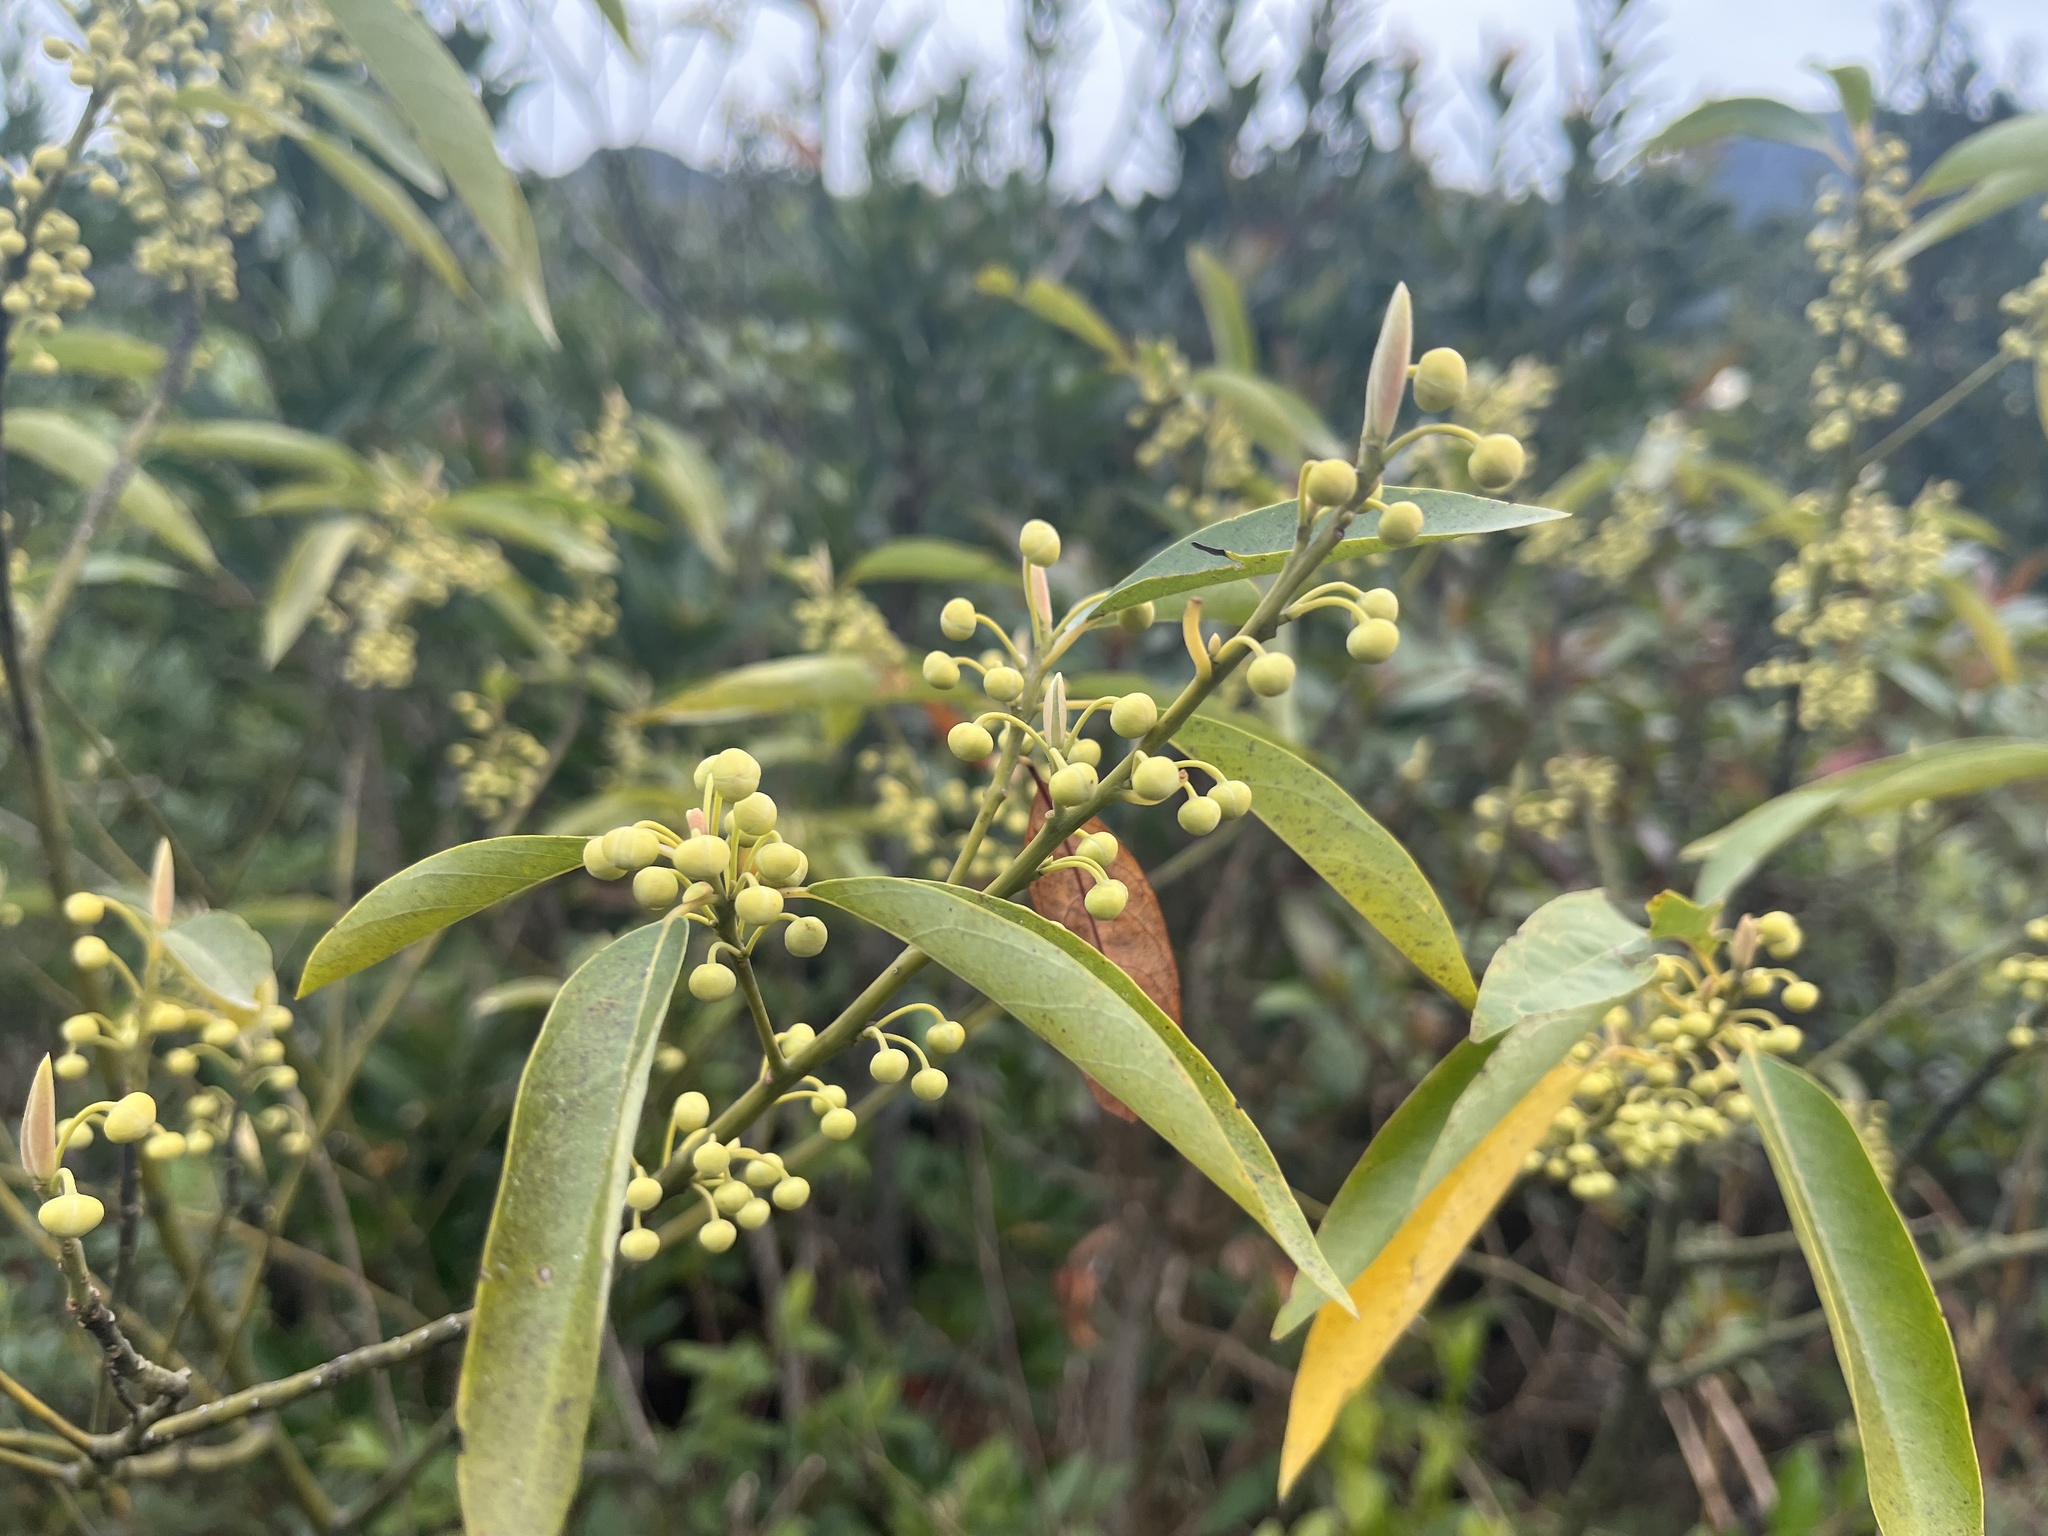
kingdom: Plantae
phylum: Tracheophyta
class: Magnoliopsida
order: Laurales
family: Lauraceae
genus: Litsea
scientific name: Litsea cubeba
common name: Mountain-pepper
